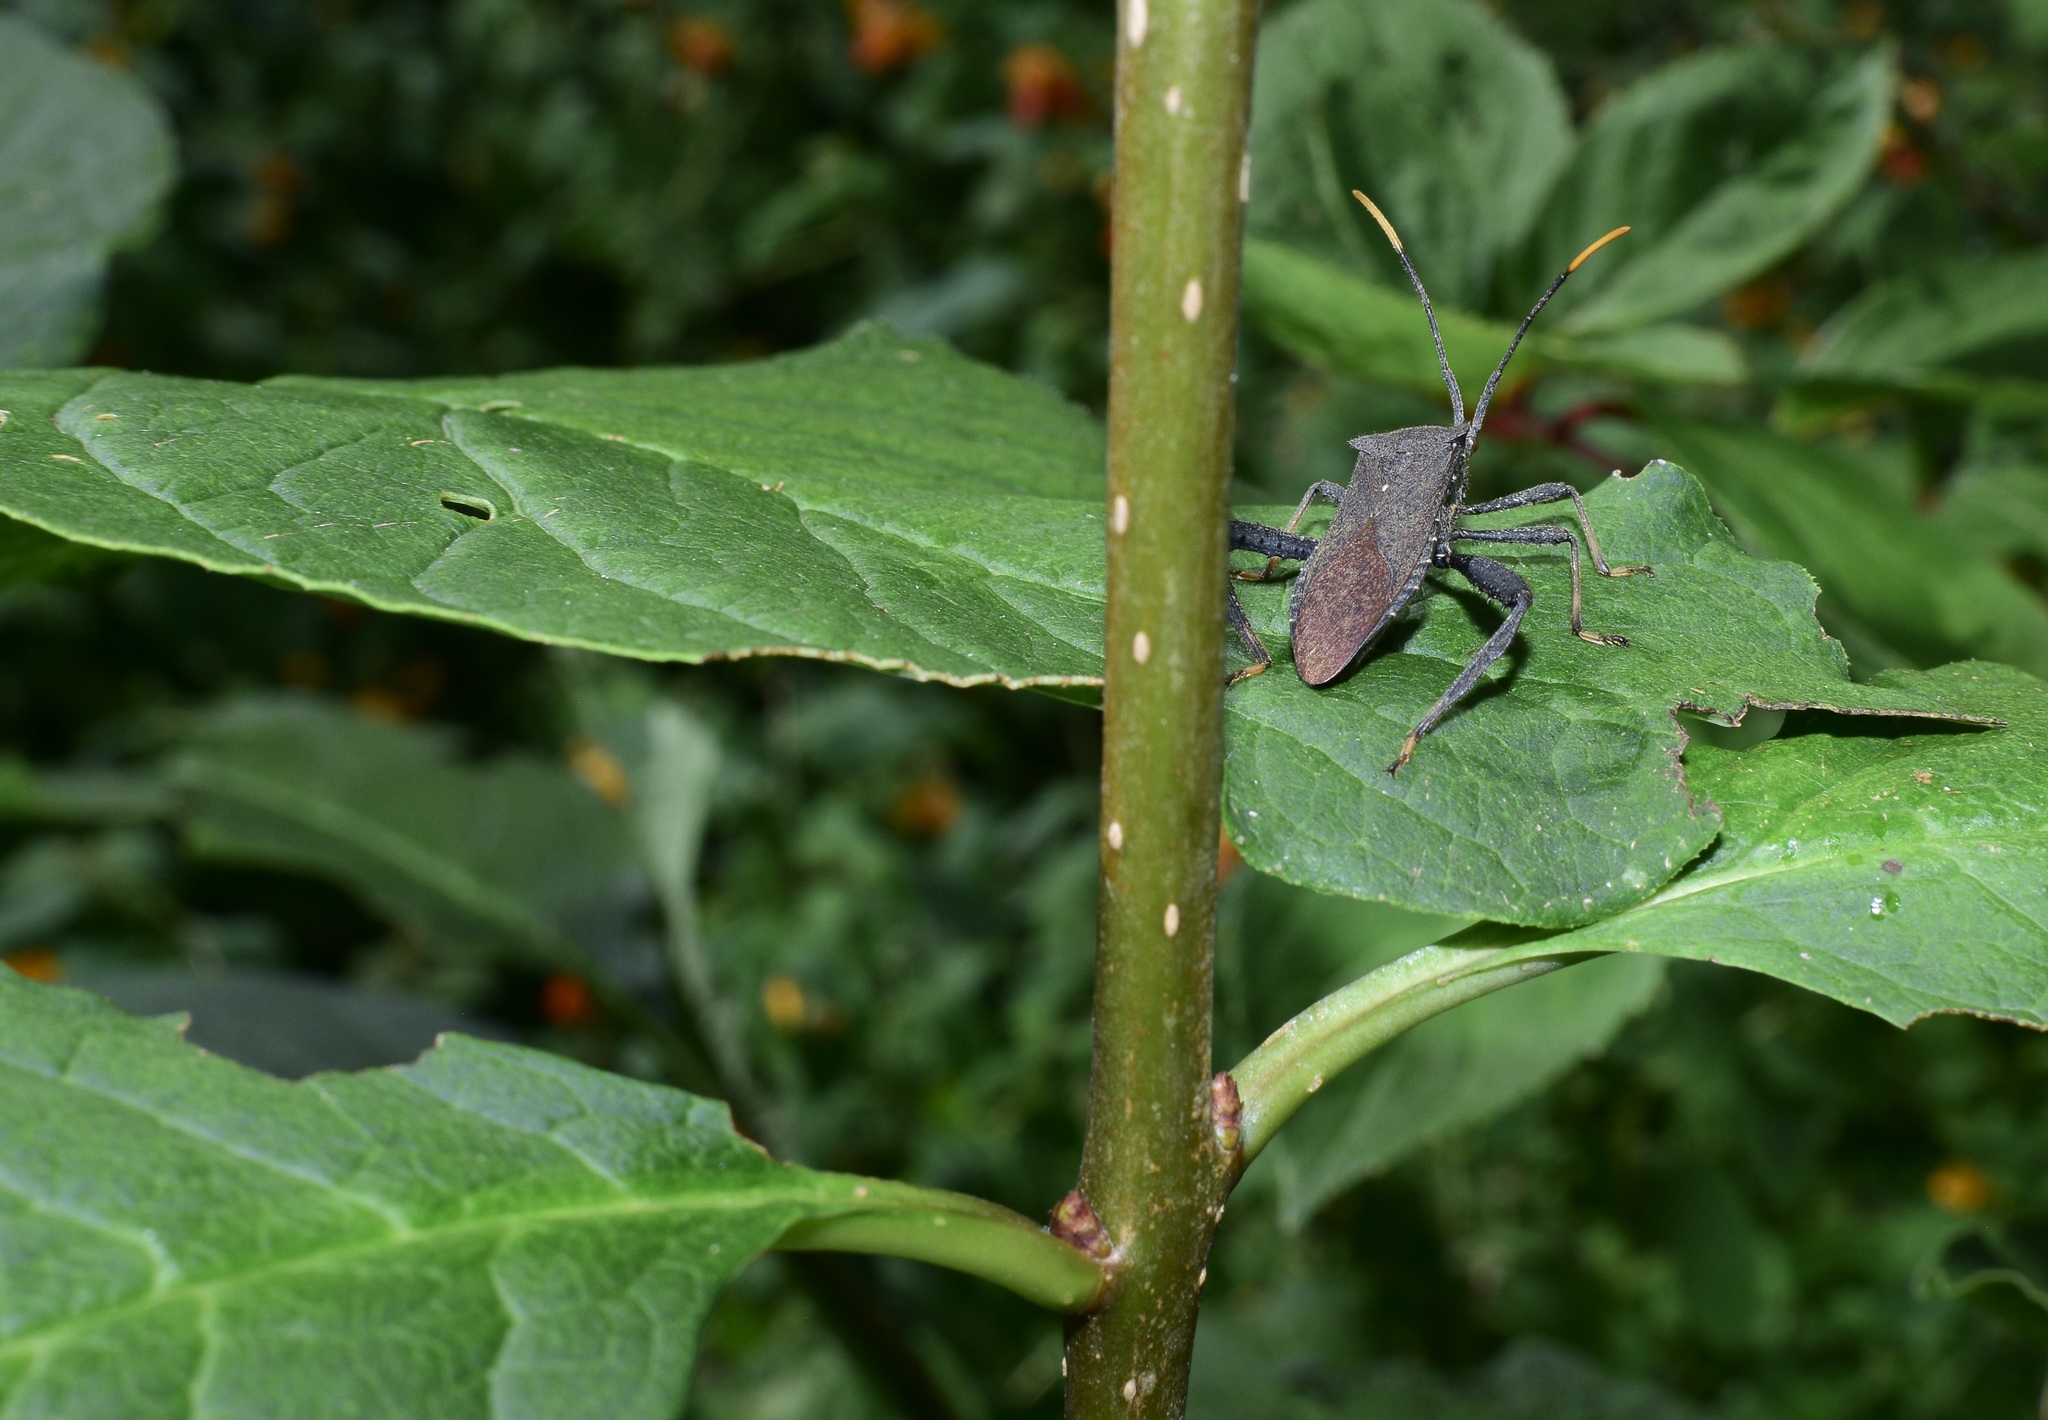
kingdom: Animalia
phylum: Arthropoda
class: Insecta
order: Hemiptera
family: Coreidae
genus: Acanthocephala
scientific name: Acanthocephala terminalis
